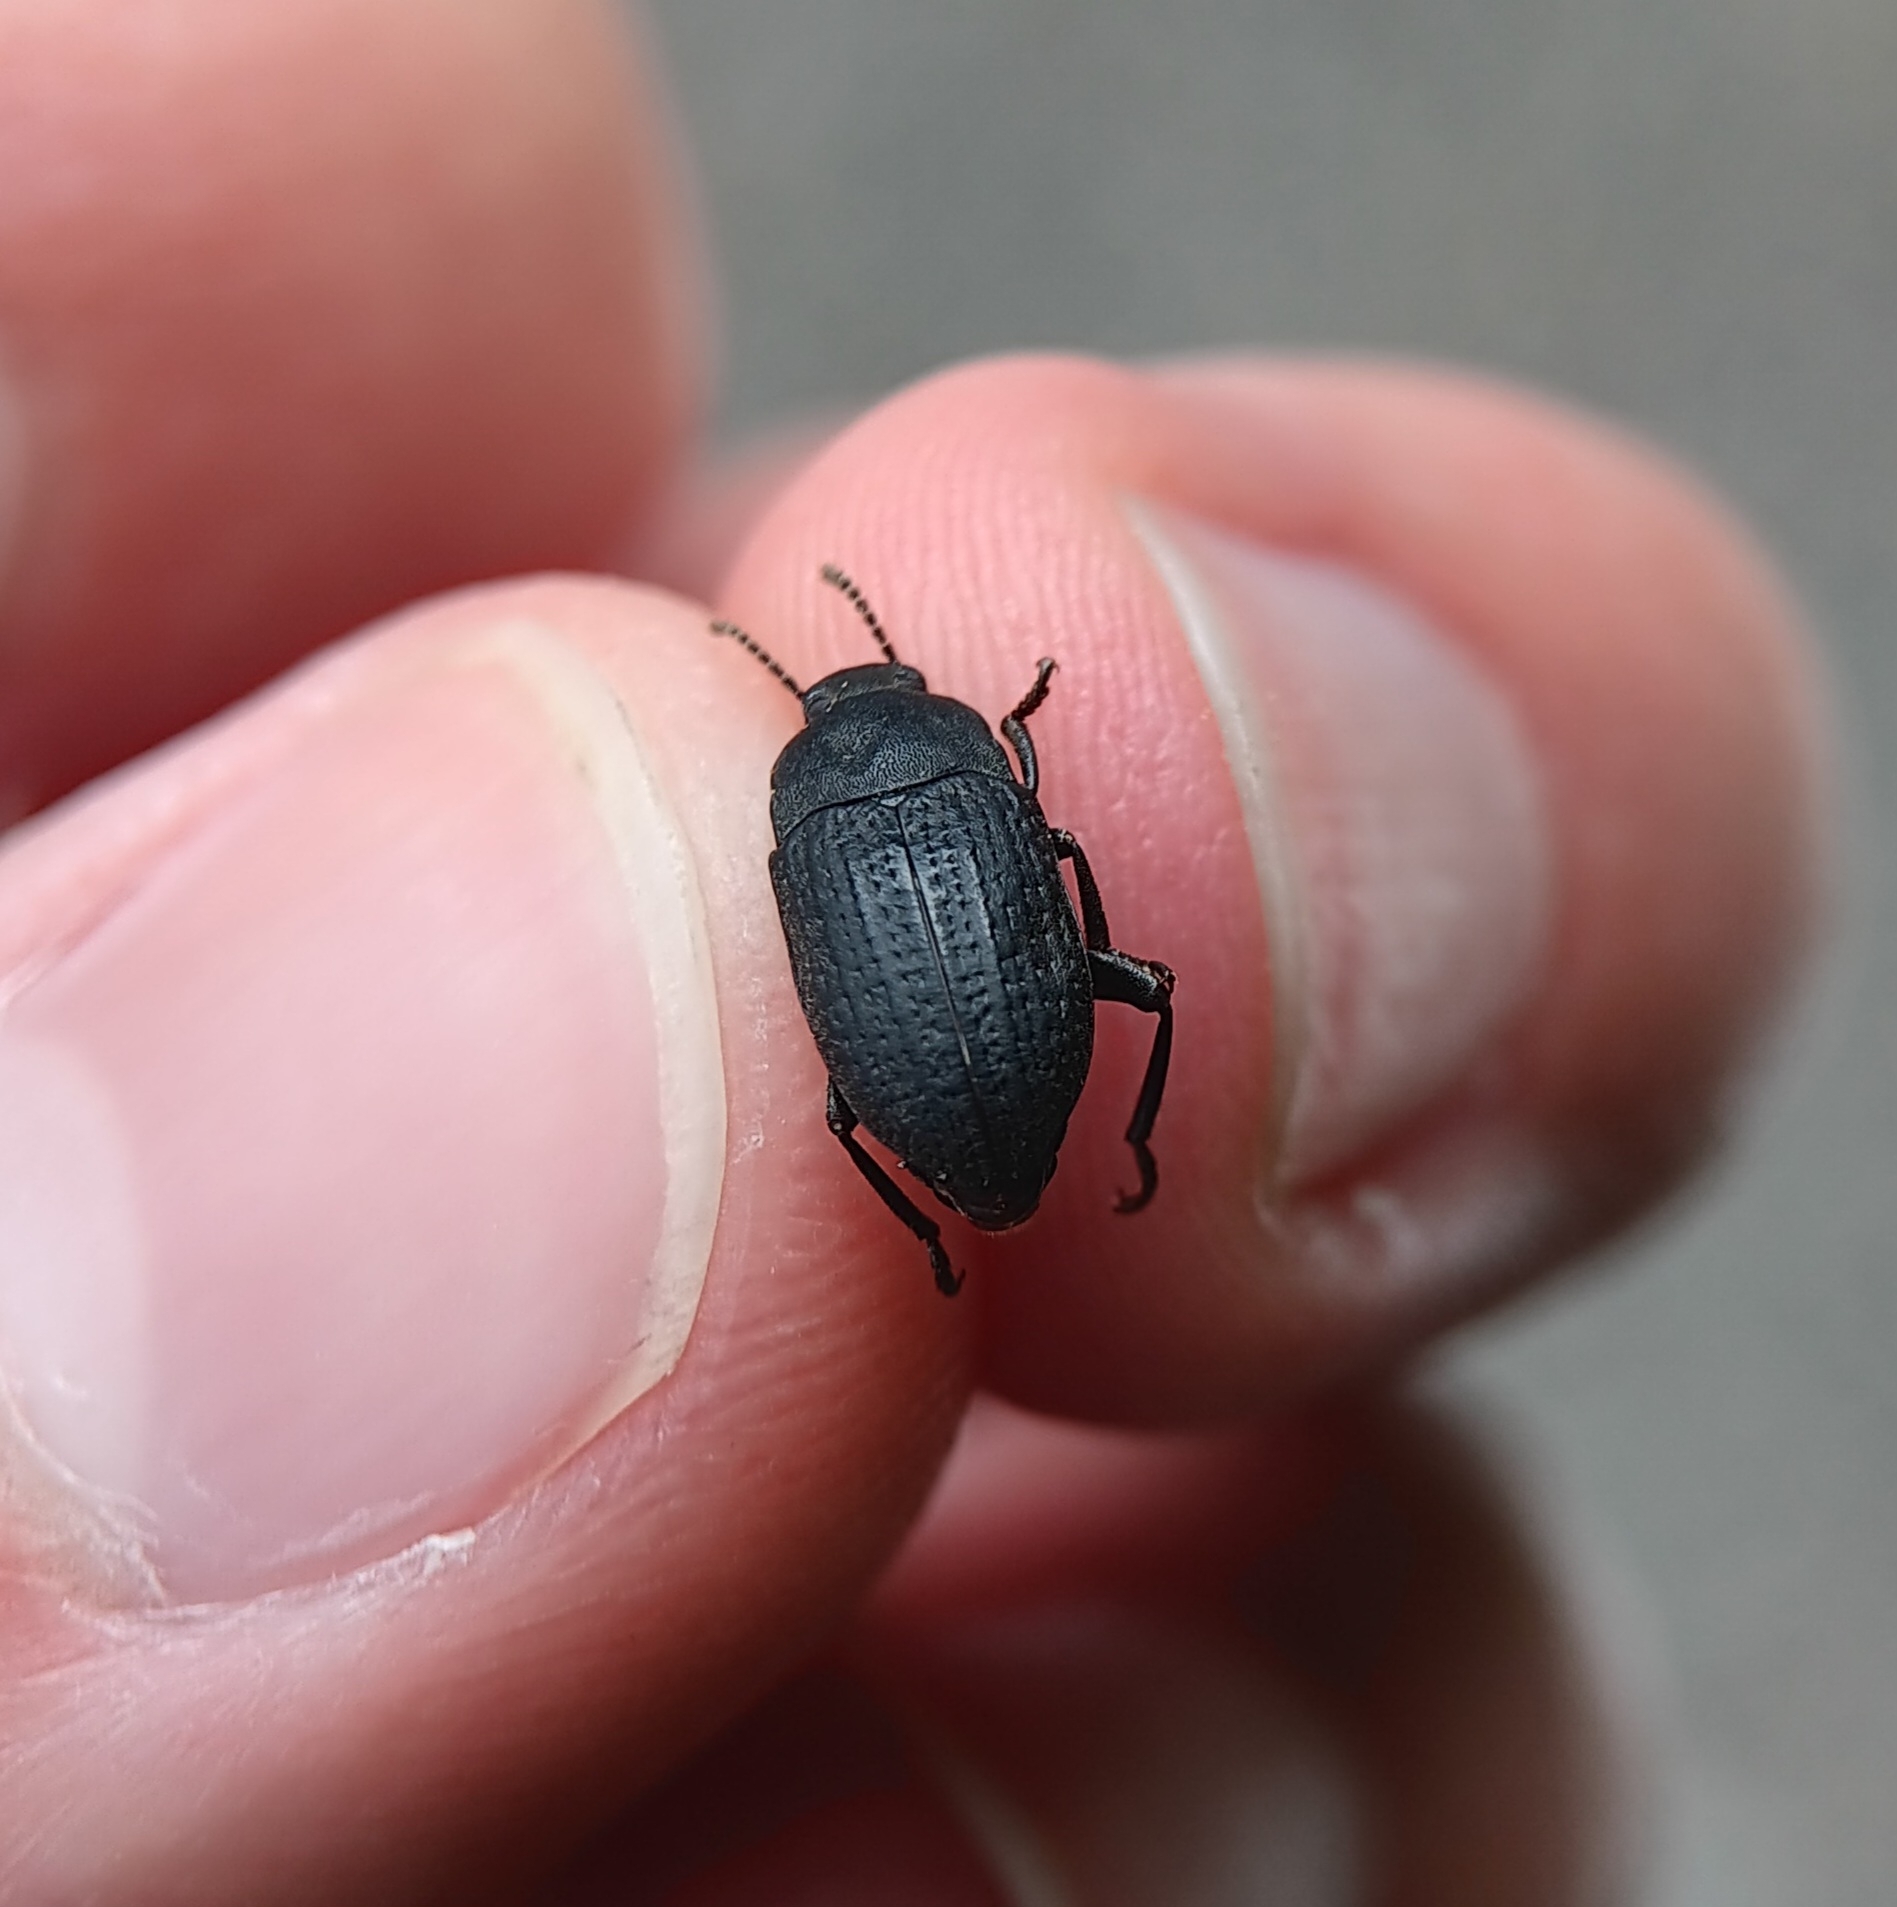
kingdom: Animalia
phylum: Arthropoda
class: Insecta
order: Coleoptera
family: Tenebrionidae
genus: Asiopus
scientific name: Asiopus
